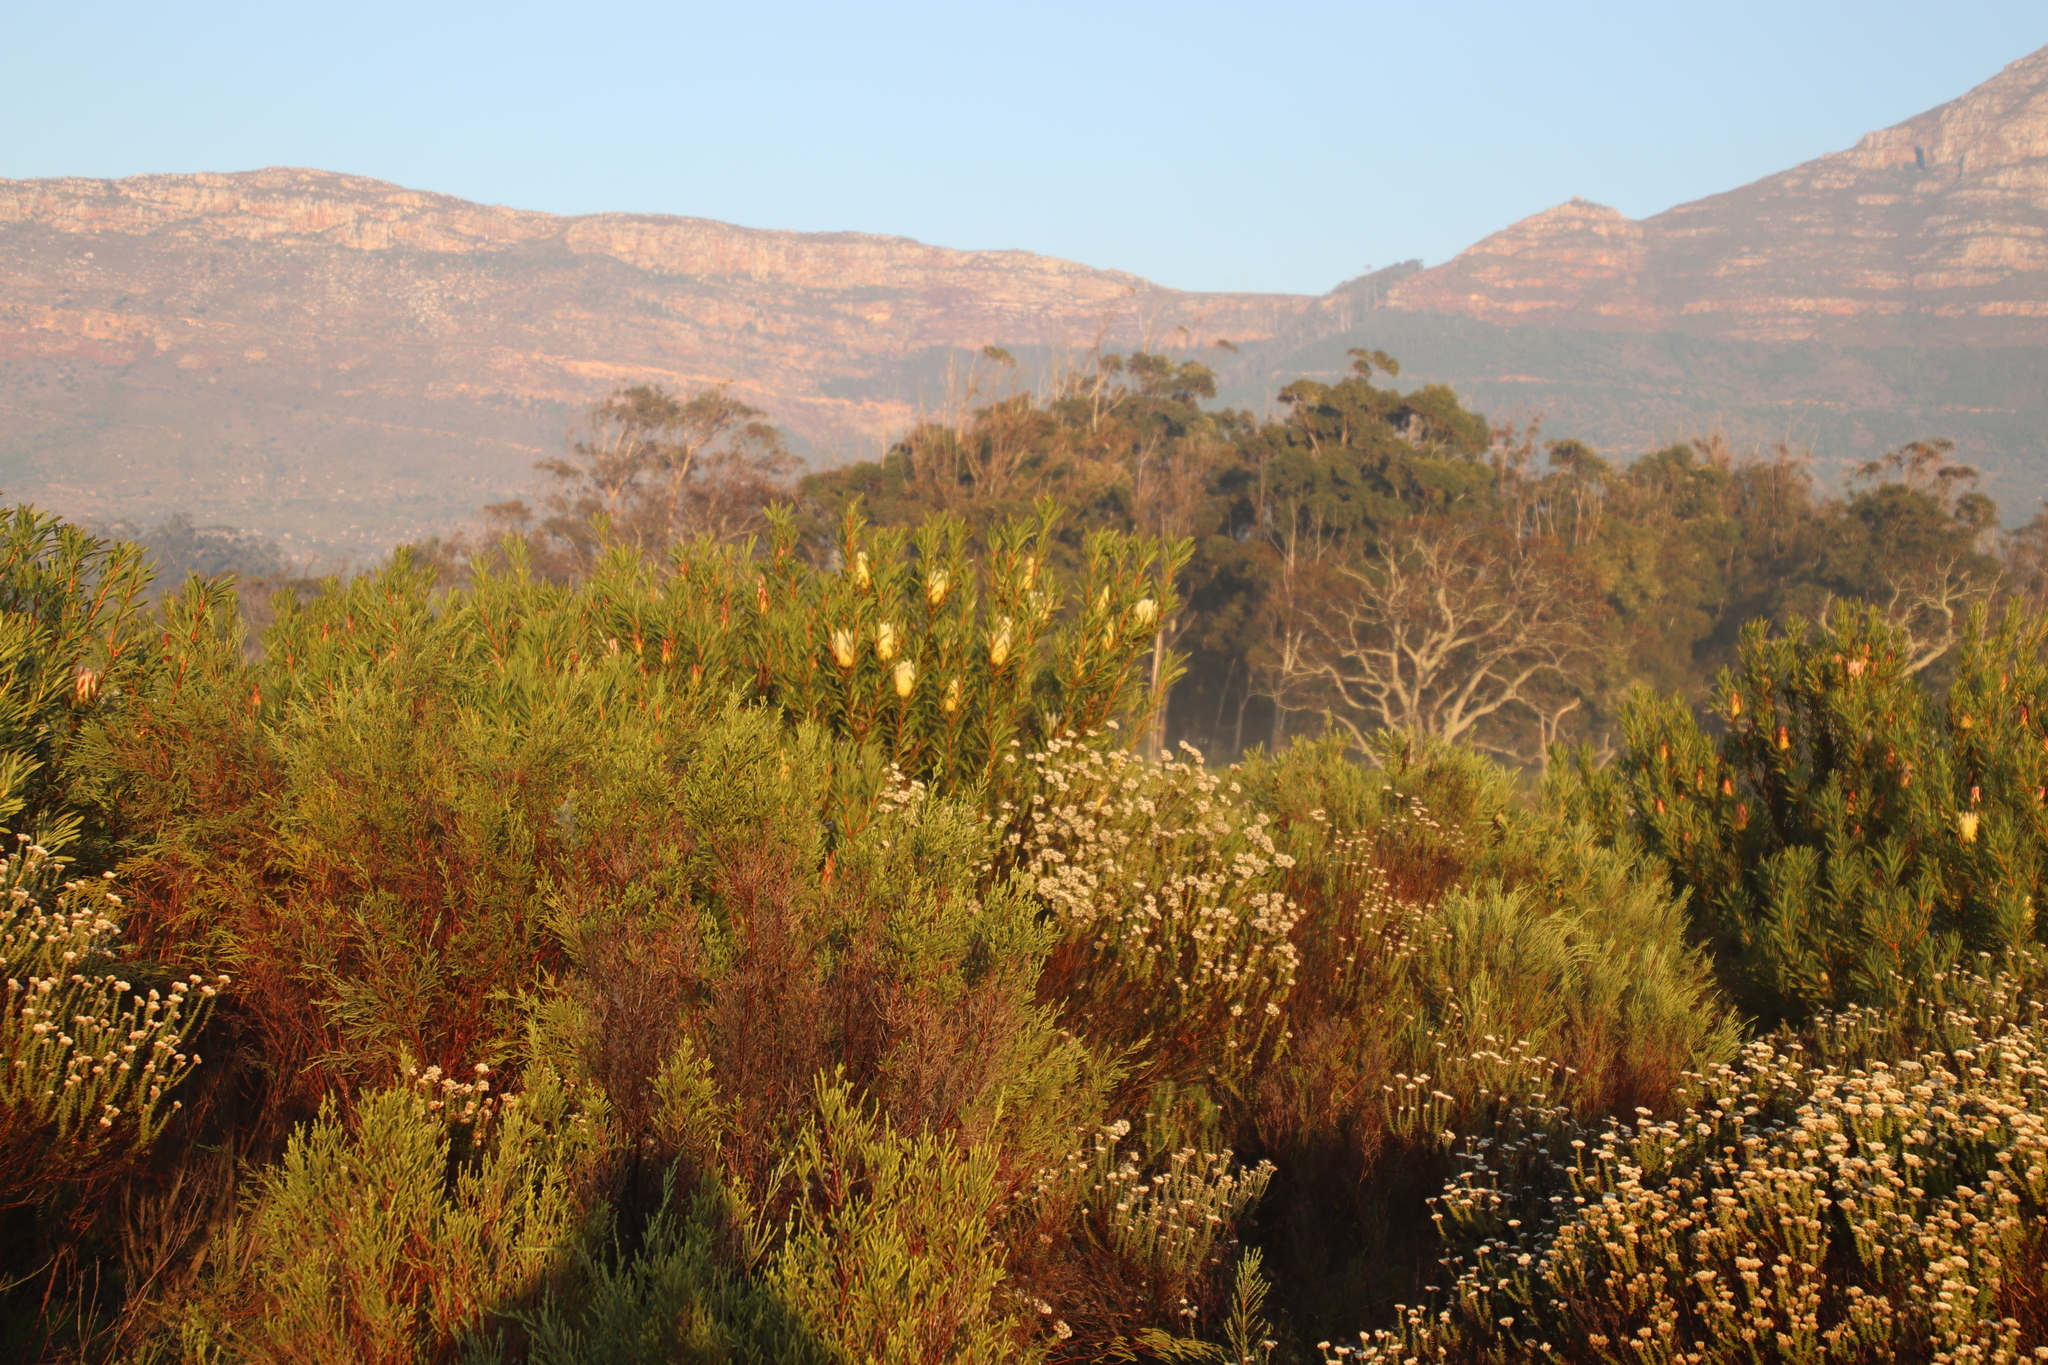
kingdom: Plantae
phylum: Tracheophyta
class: Magnoliopsida
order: Proteales
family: Proteaceae
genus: Protea
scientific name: Protea repens
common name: Sugarbush
